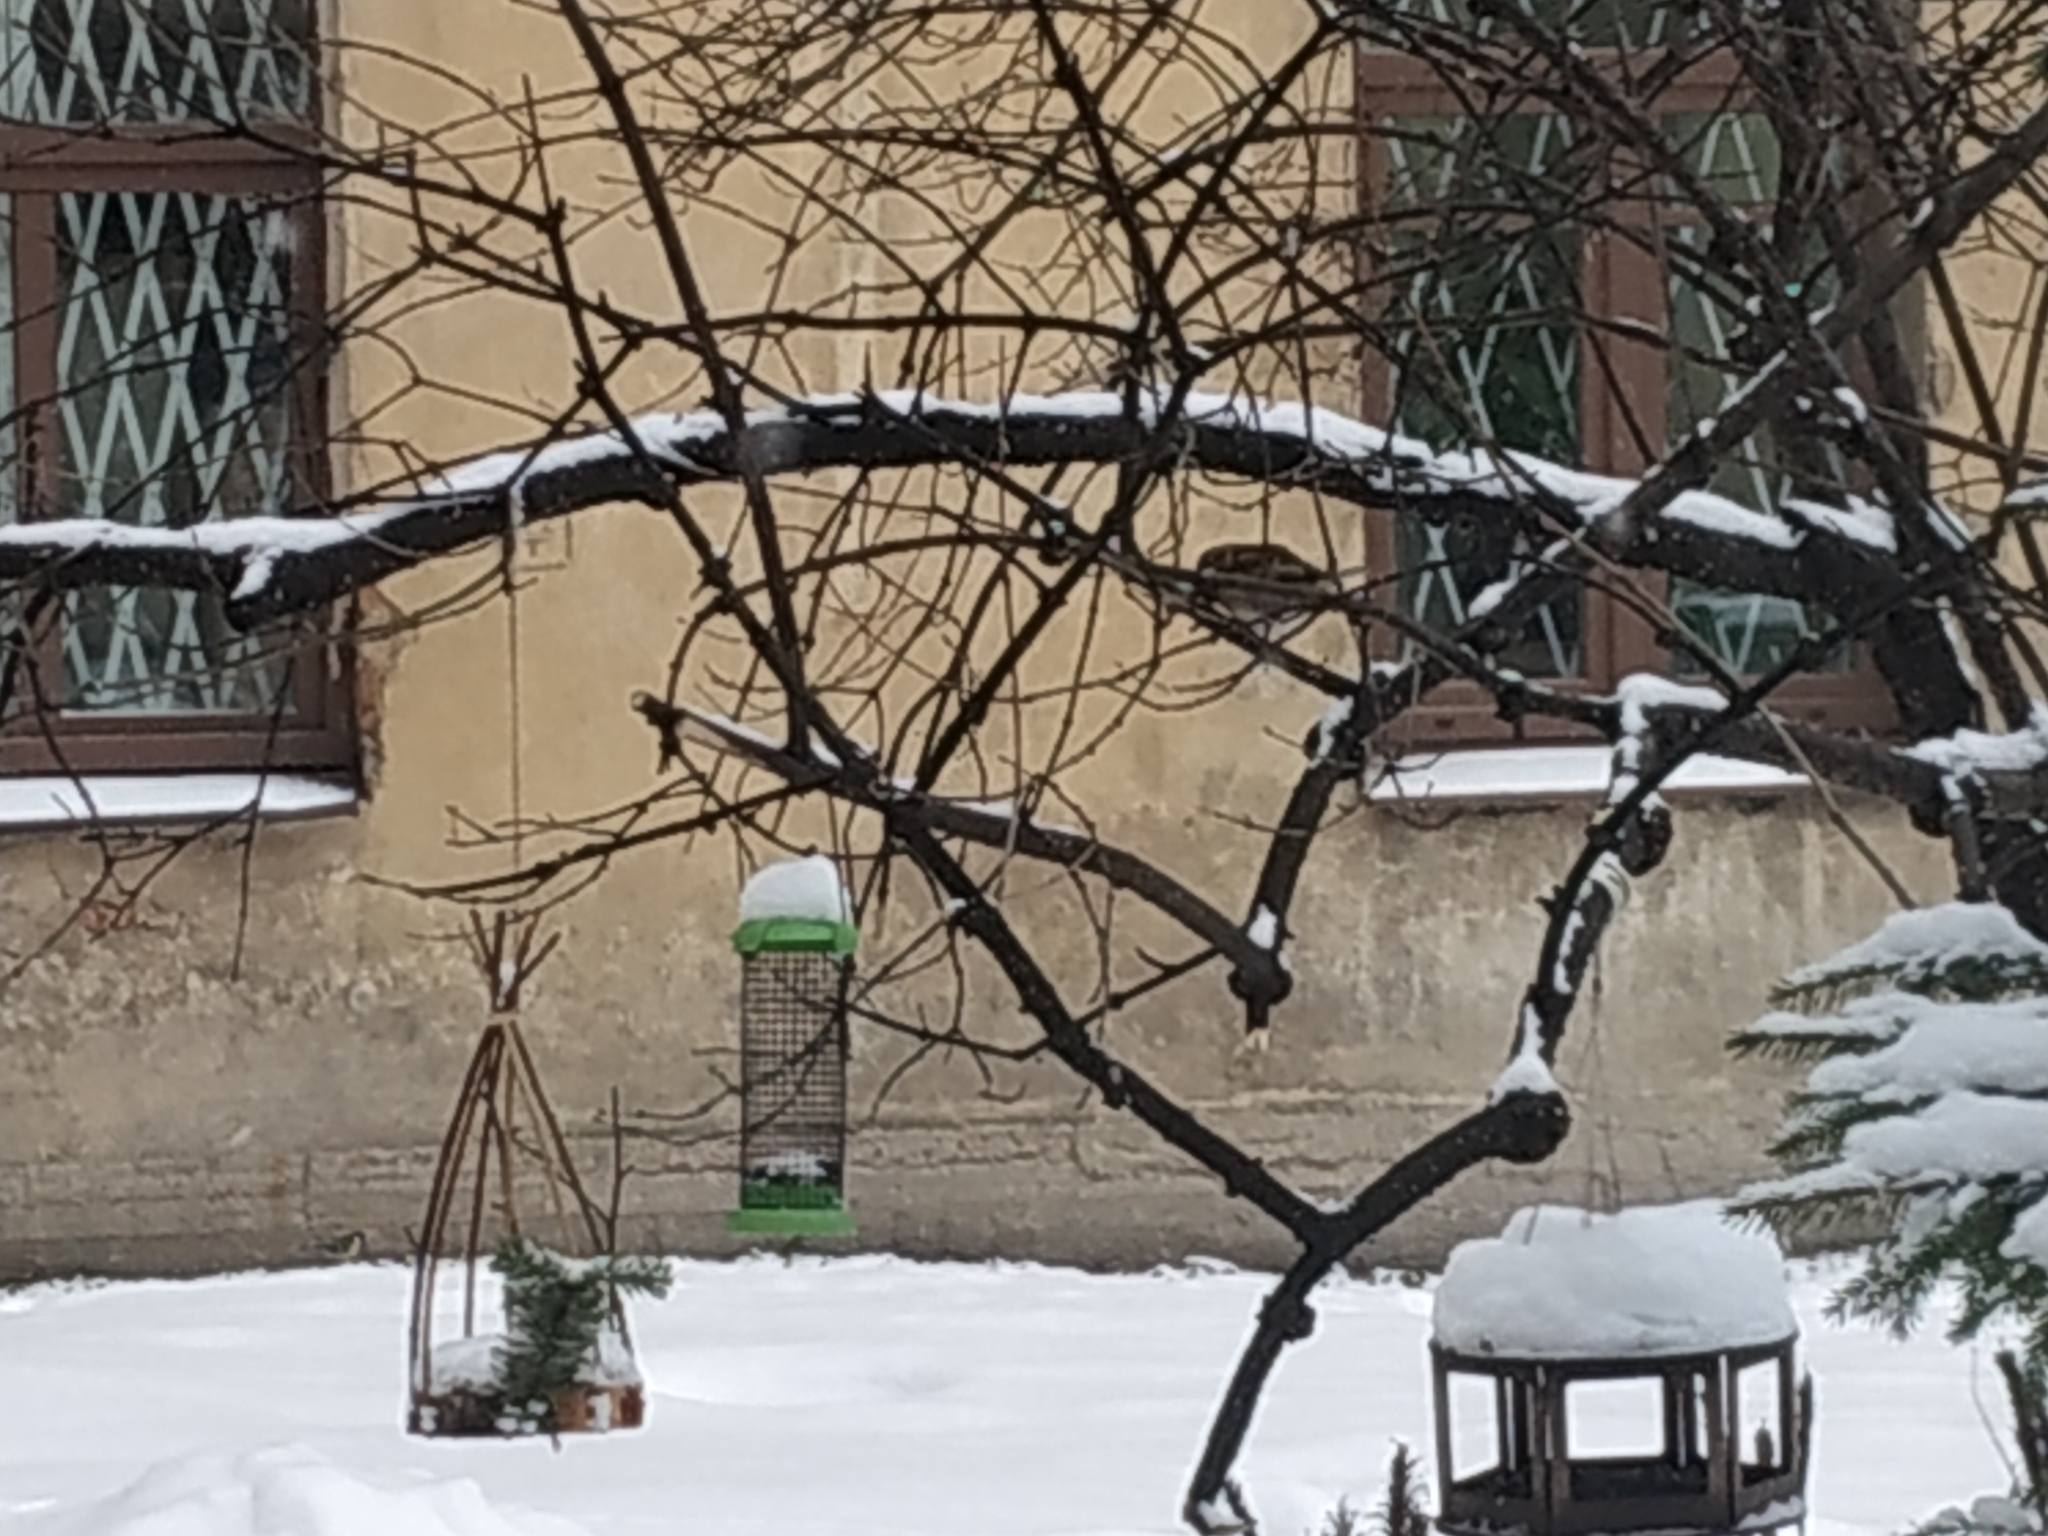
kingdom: Animalia
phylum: Chordata
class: Aves
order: Passeriformes
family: Passeridae
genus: Passer
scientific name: Passer domesticus
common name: House sparrow
